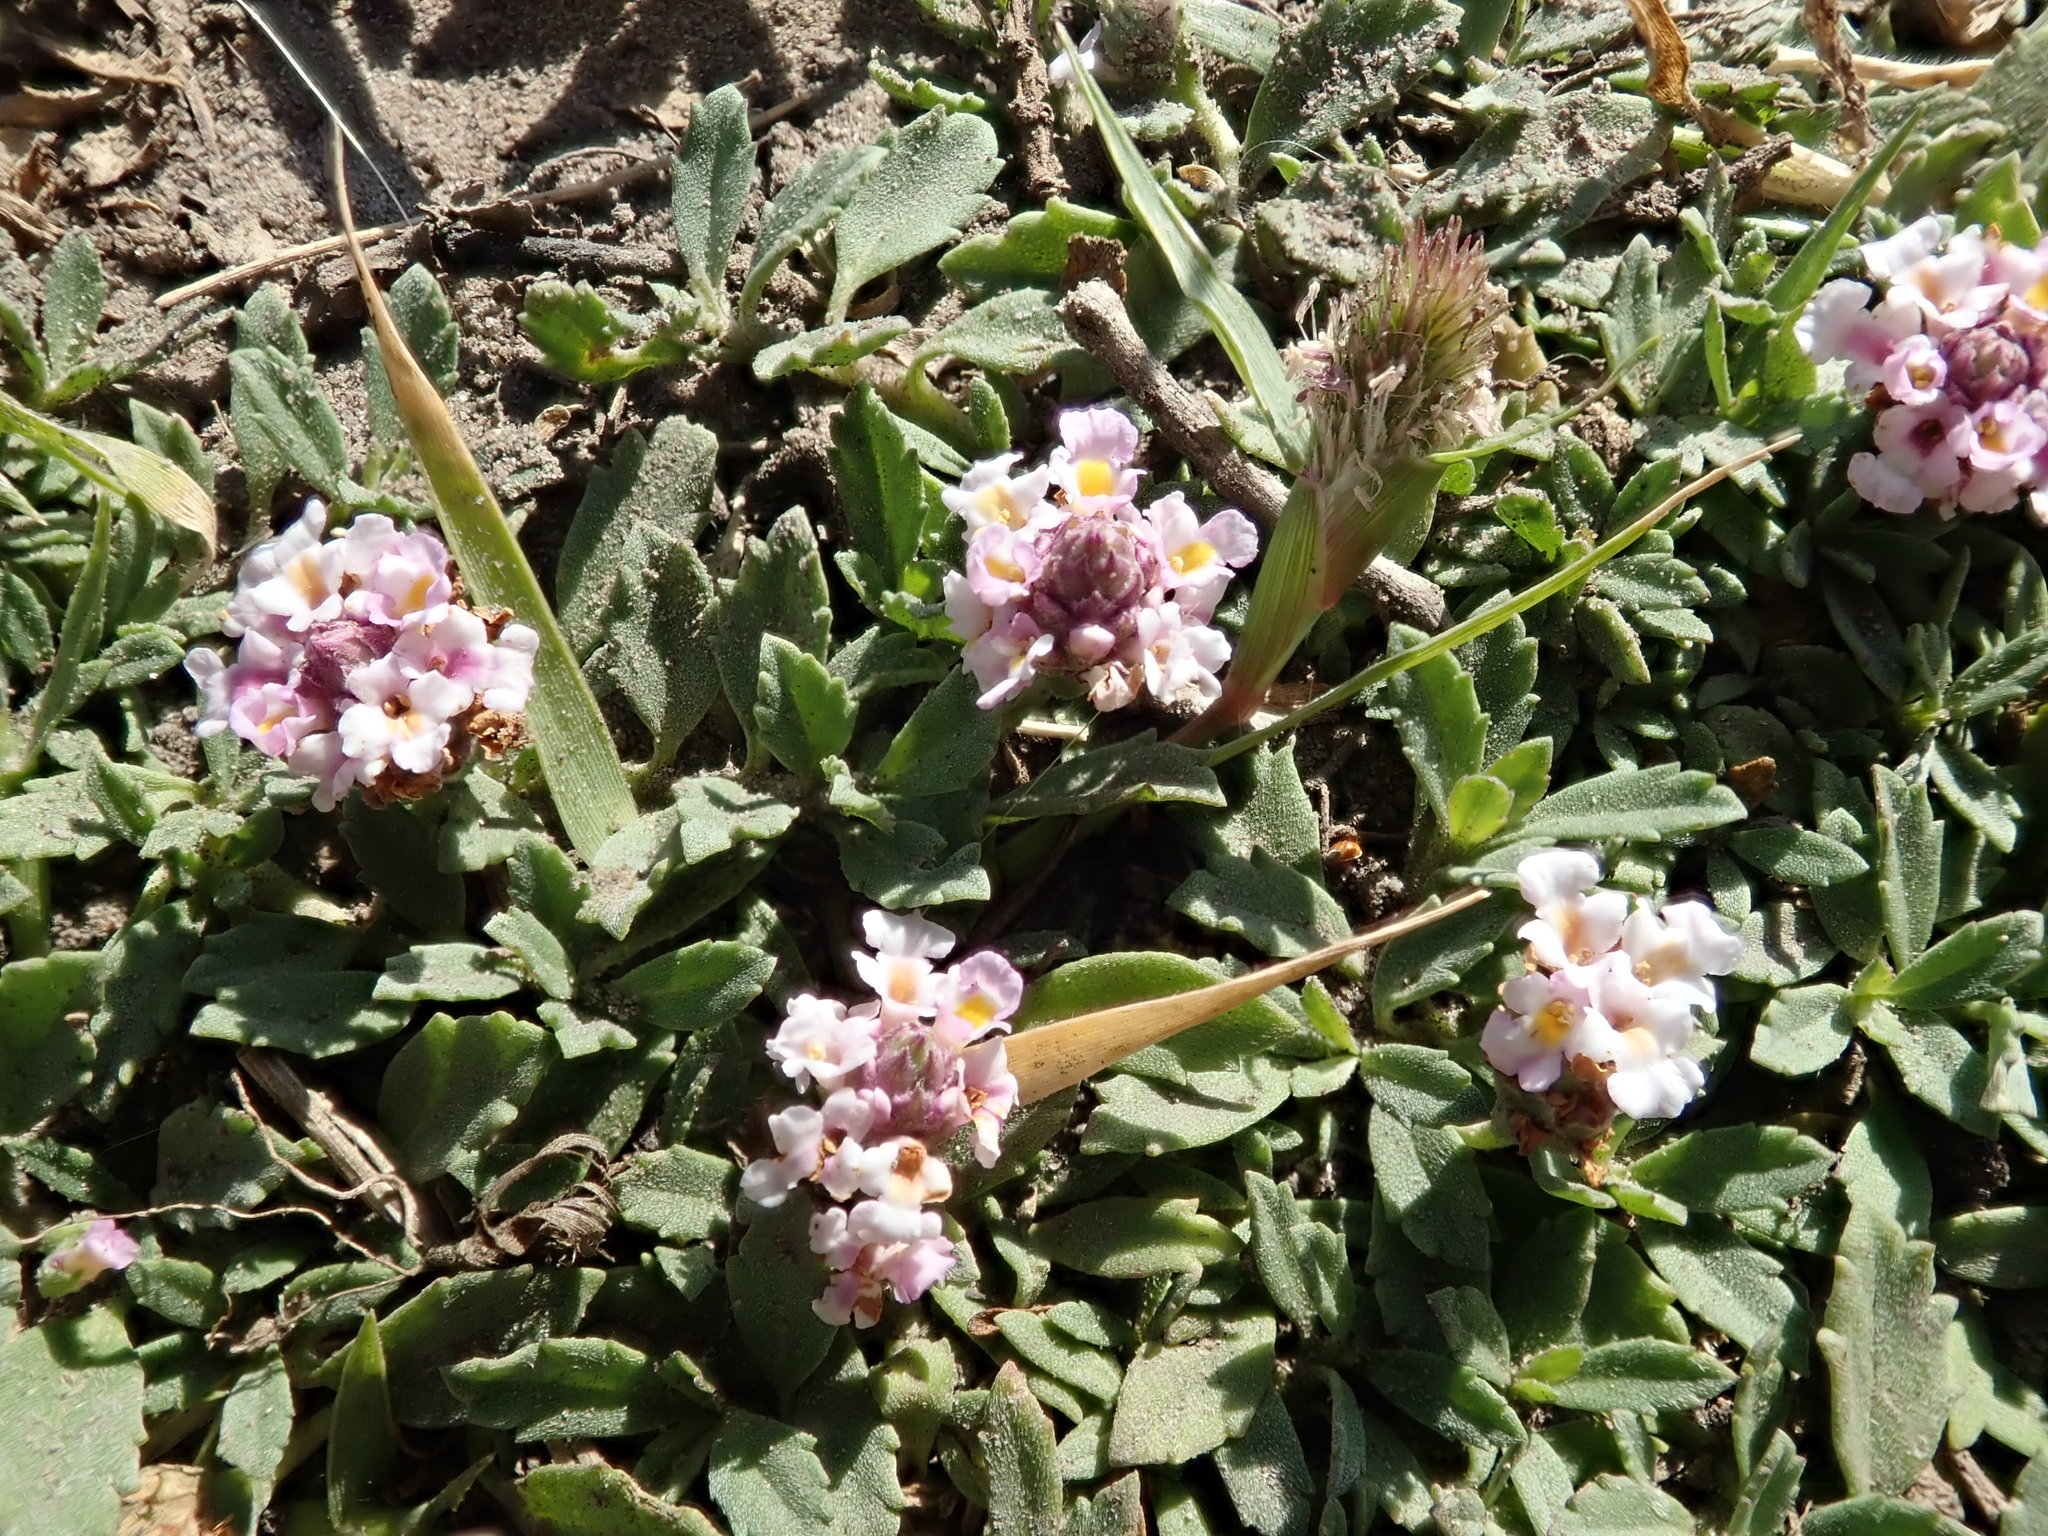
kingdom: Plantae
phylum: Tracheophyta
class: Magnoliopsida
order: Lamiales
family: Verbenaceae
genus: Phyla
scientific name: Phyla nodiflora
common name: Frogfruit
